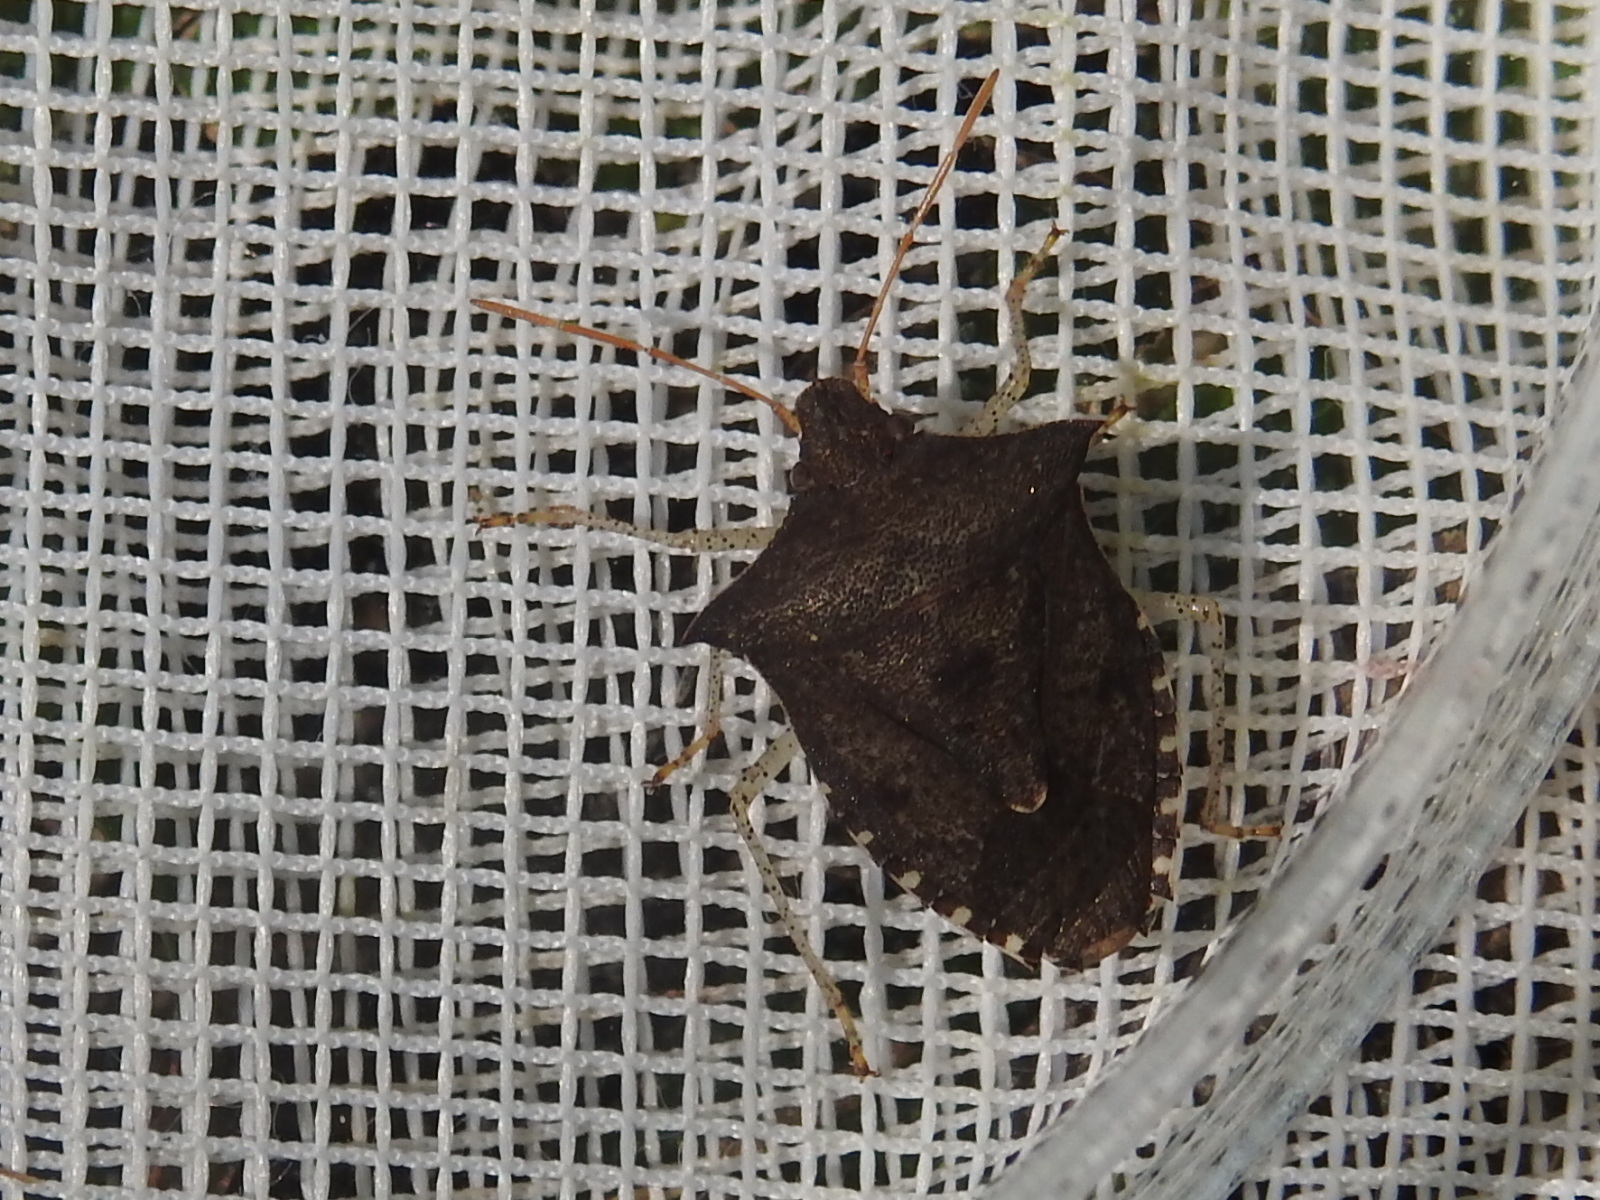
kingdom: Animalia
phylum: Arthropoda
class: Insecta
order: Hemiptera
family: Pentatomidae
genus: Euschistus
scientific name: Euschistus tristigmus
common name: Dusky stink bug
